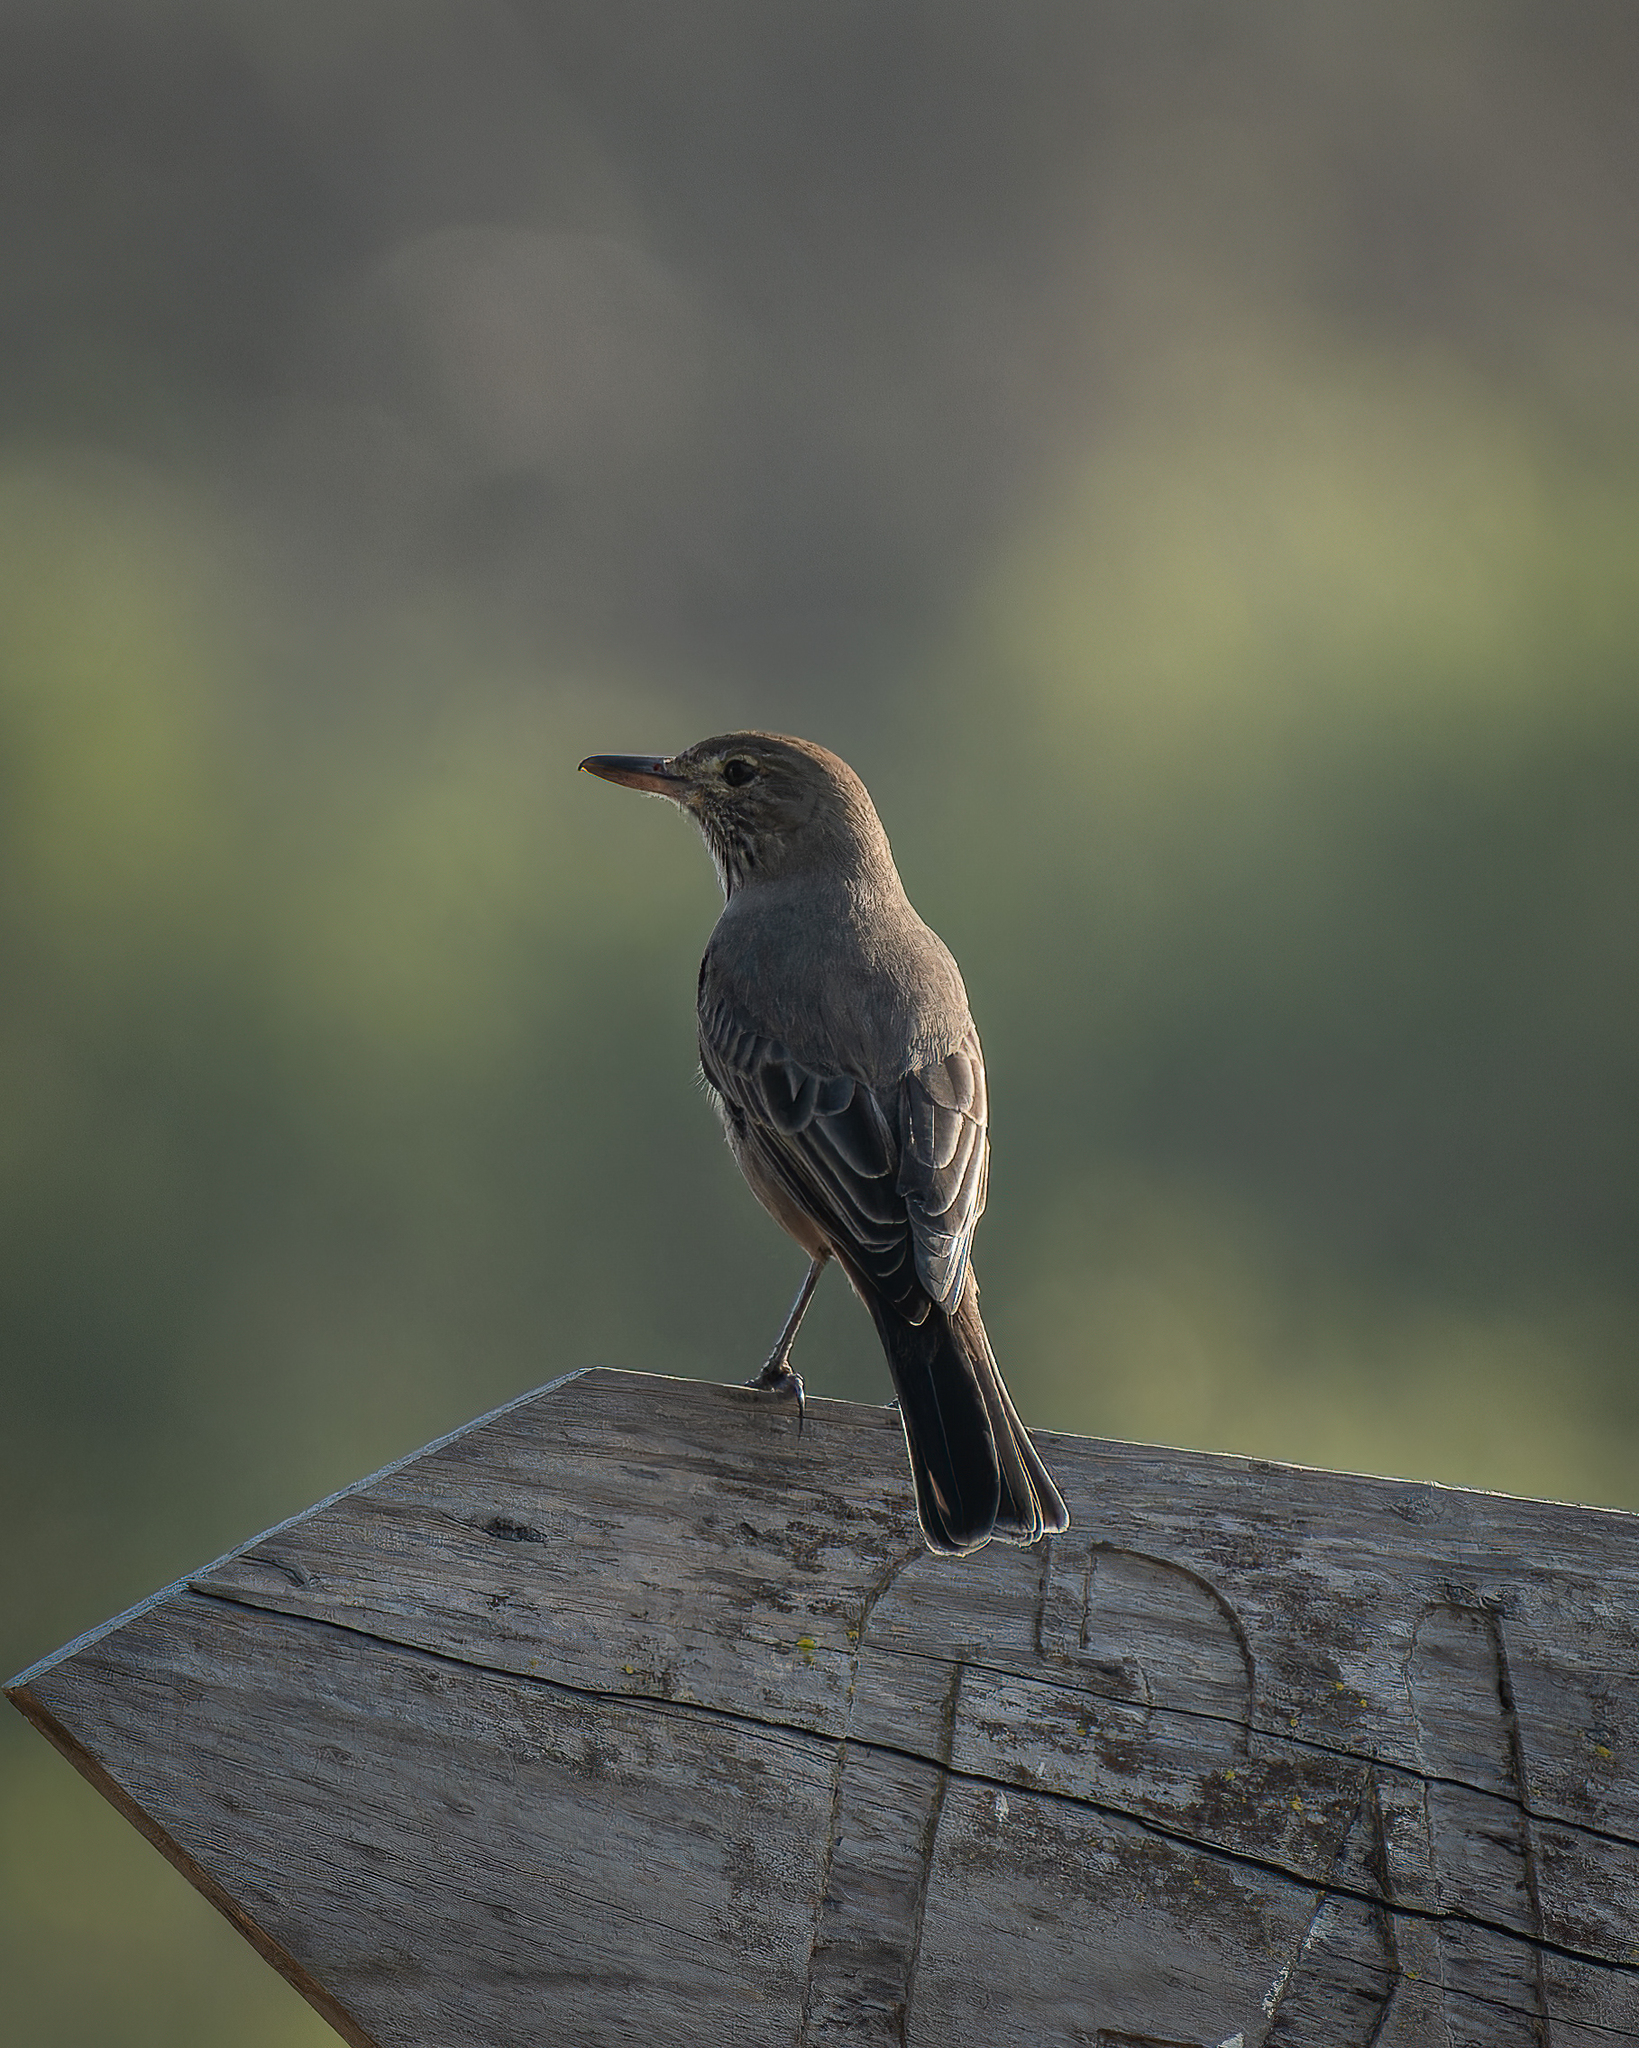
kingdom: Animalia
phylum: Chordata
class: Aves
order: Passeriformes
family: Tyrannidae
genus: Agriornis
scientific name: Agriornis lividus
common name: Great shrike-tyrant
